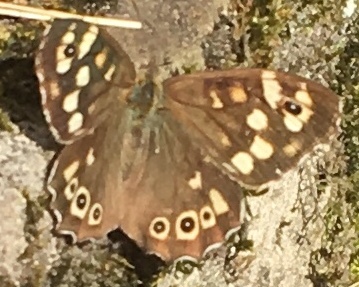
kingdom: Animalia
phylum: Arthropoda
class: Insecta
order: Lepidoptera
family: Nymphalidae
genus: Pararge
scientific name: Pararge aegeria
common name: Speckled wood
